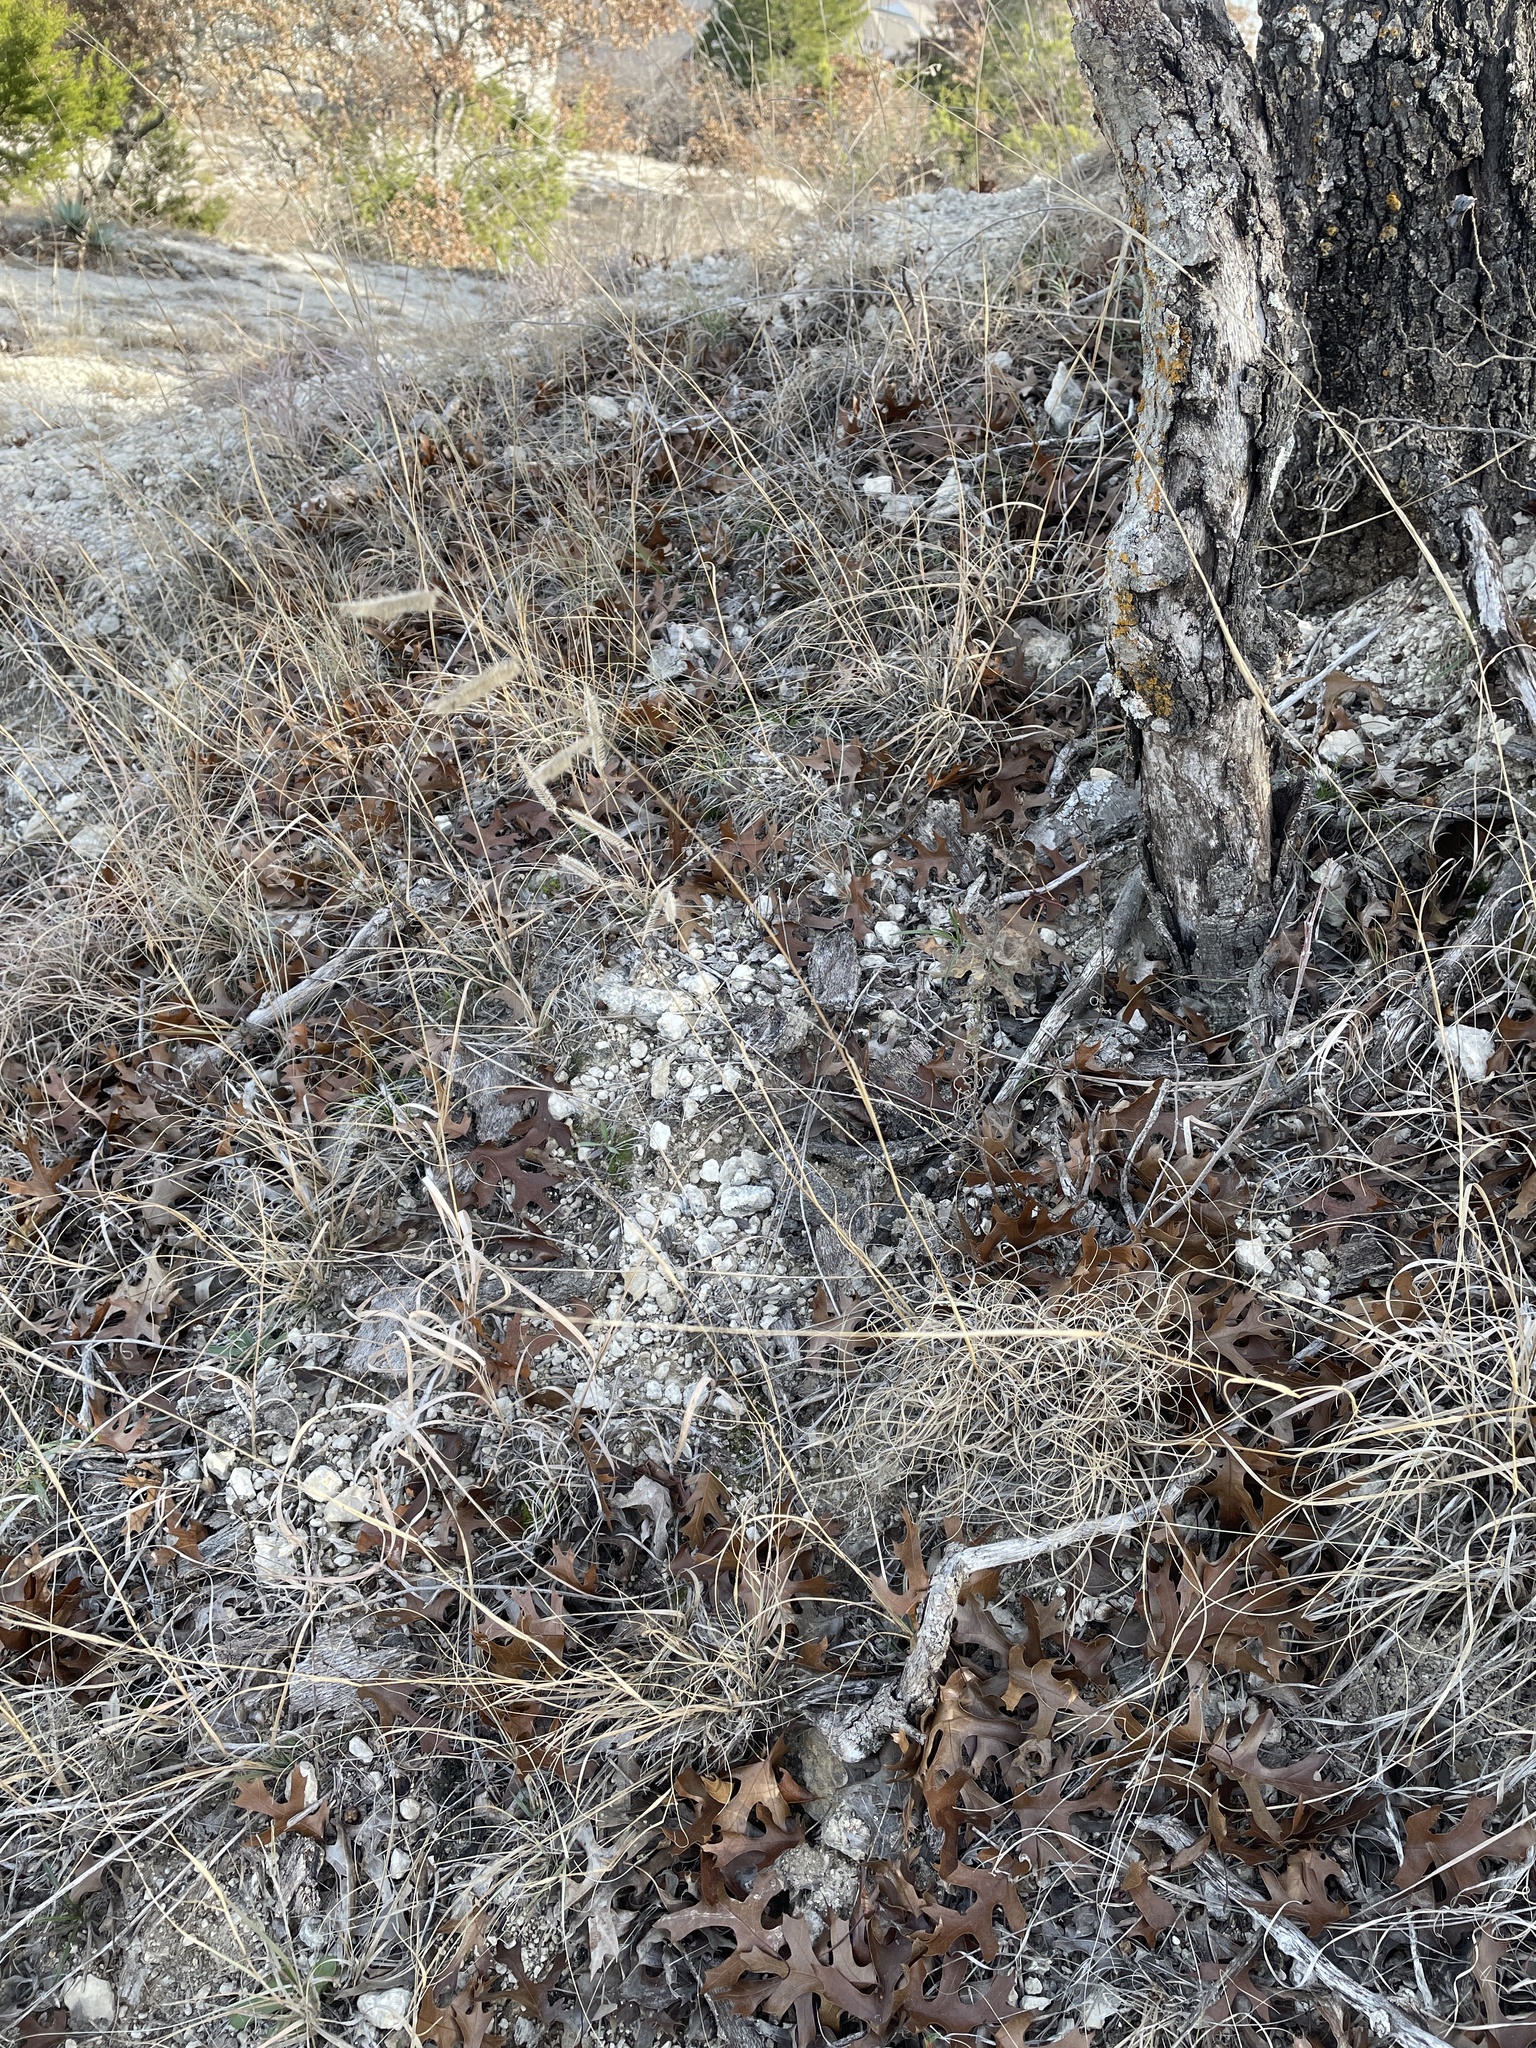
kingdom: Plantae
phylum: Tracheophyta
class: Liliopsida
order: Poales
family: Poaceae
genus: Bouteloua
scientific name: Bouteloua hirsuta
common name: Hairy grama
